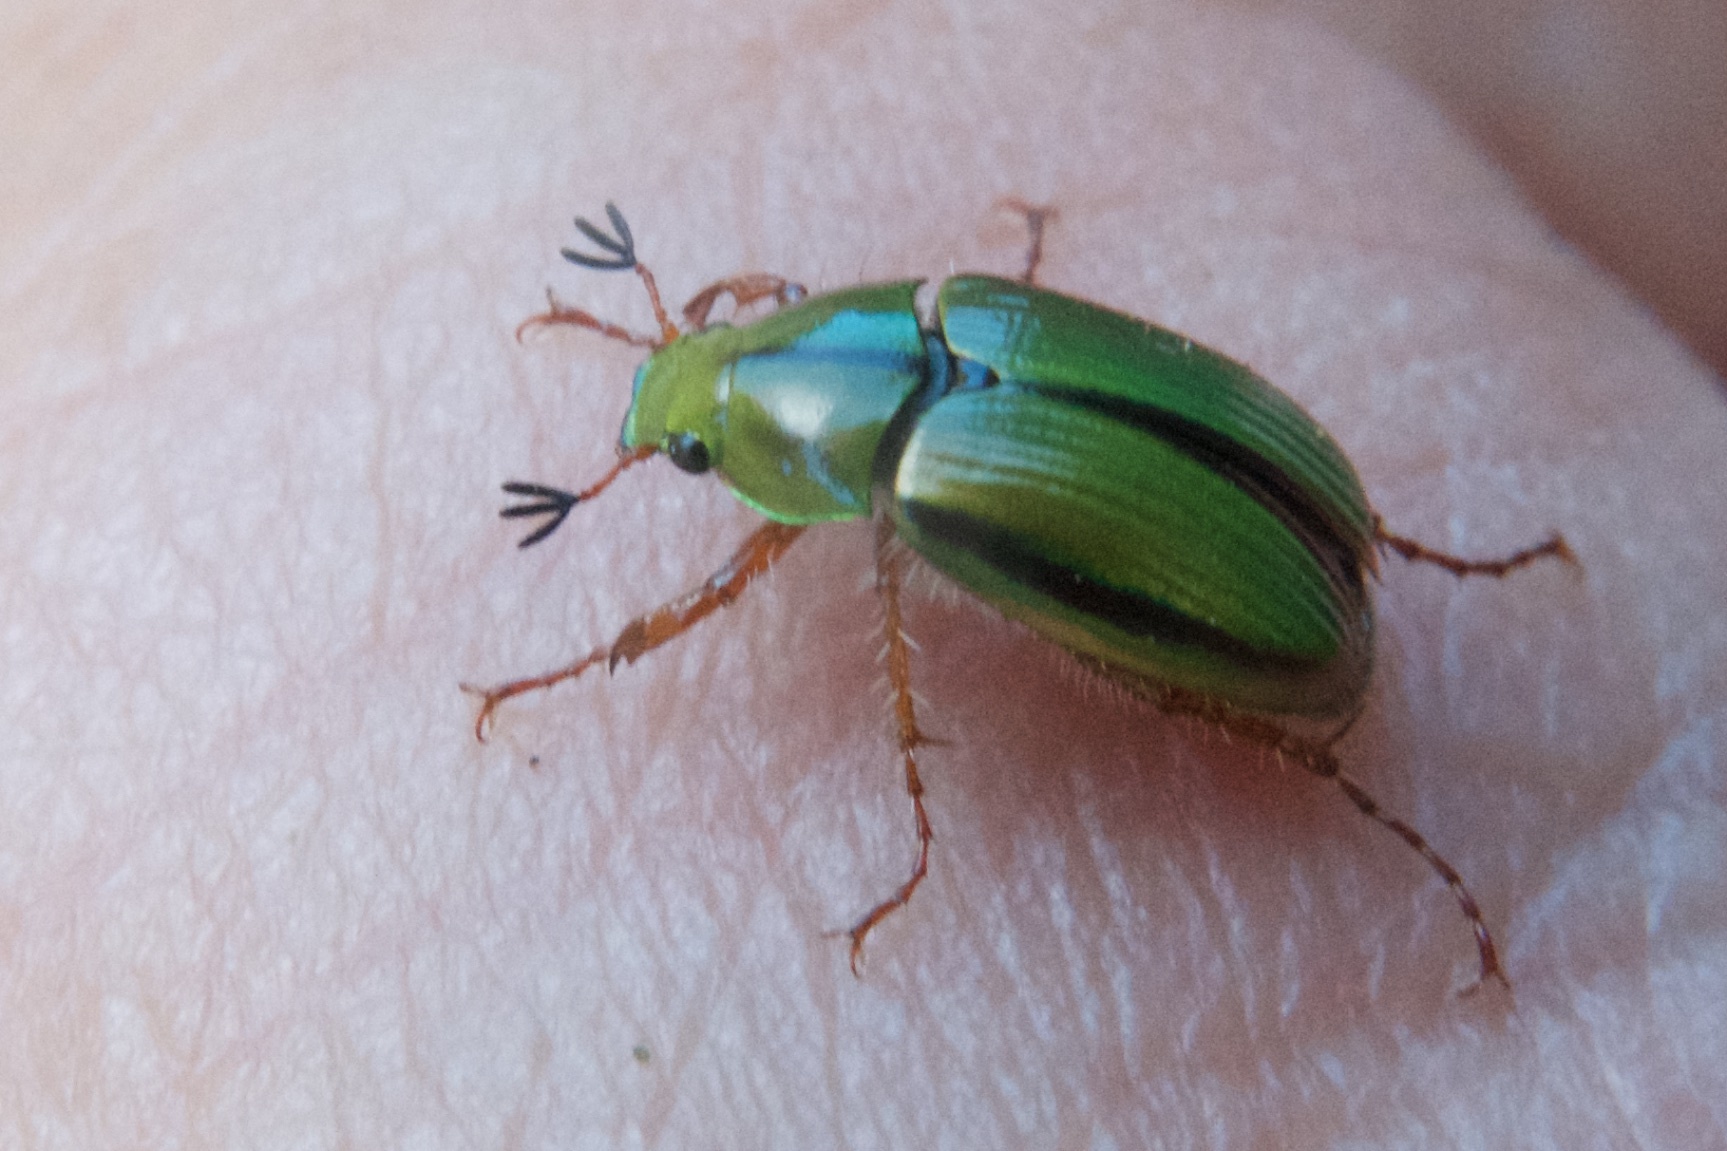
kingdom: Animalia
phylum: Arthropoda
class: Insecta
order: Coleoptera
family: Scarabaeidae
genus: Pyronota
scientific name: Pyronota festiva
